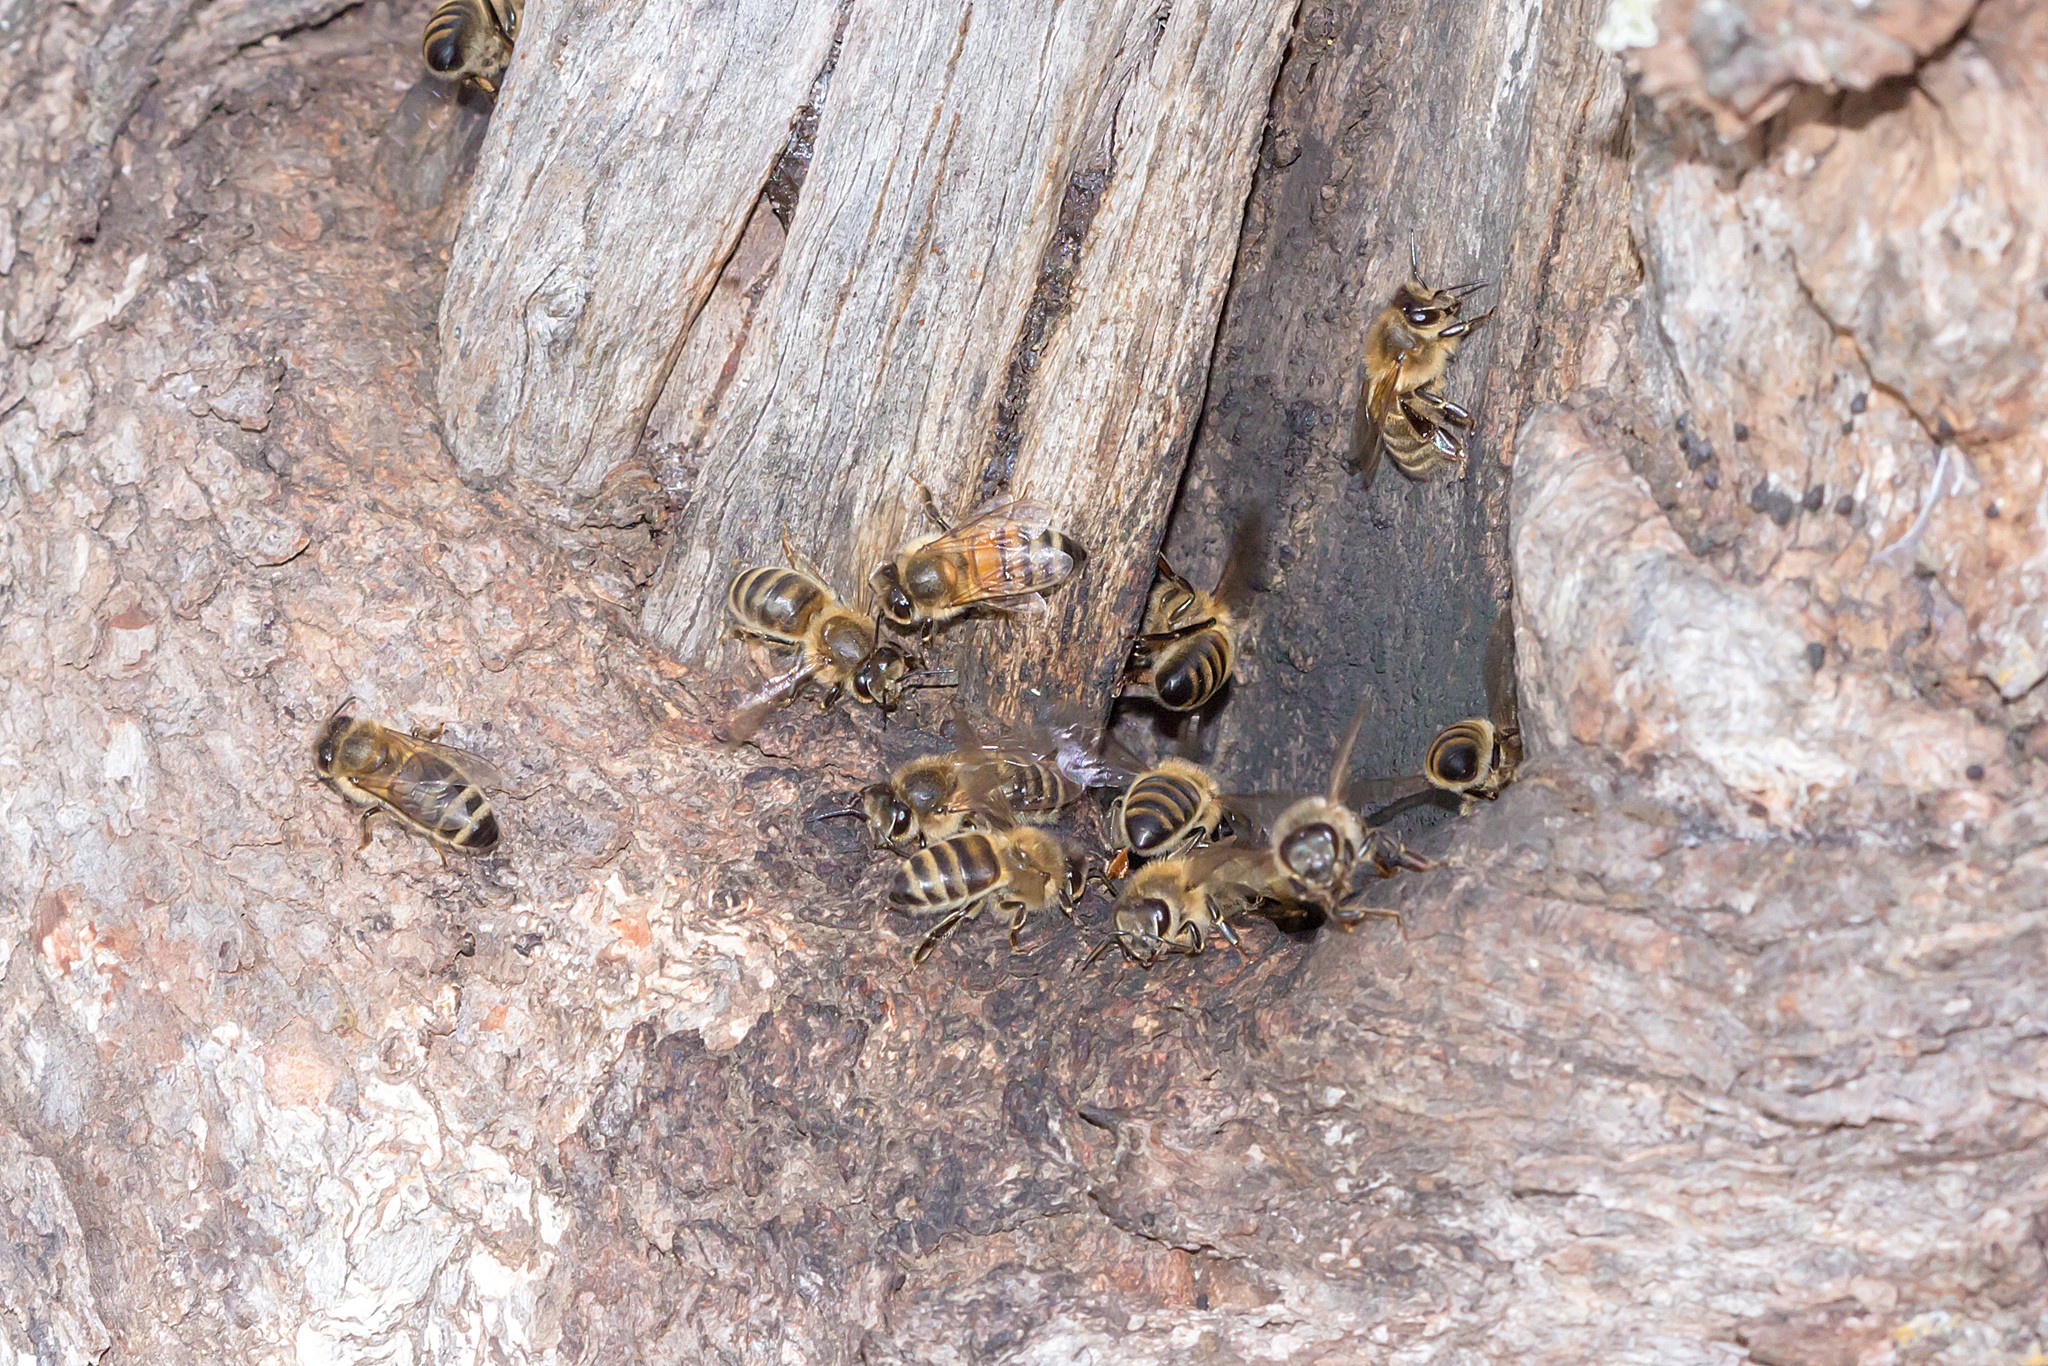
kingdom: Animalia
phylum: Arthropoda
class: Insecta
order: Hymenoptera
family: Apidae
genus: Apis
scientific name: Apis mellifera
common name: Honey bee
